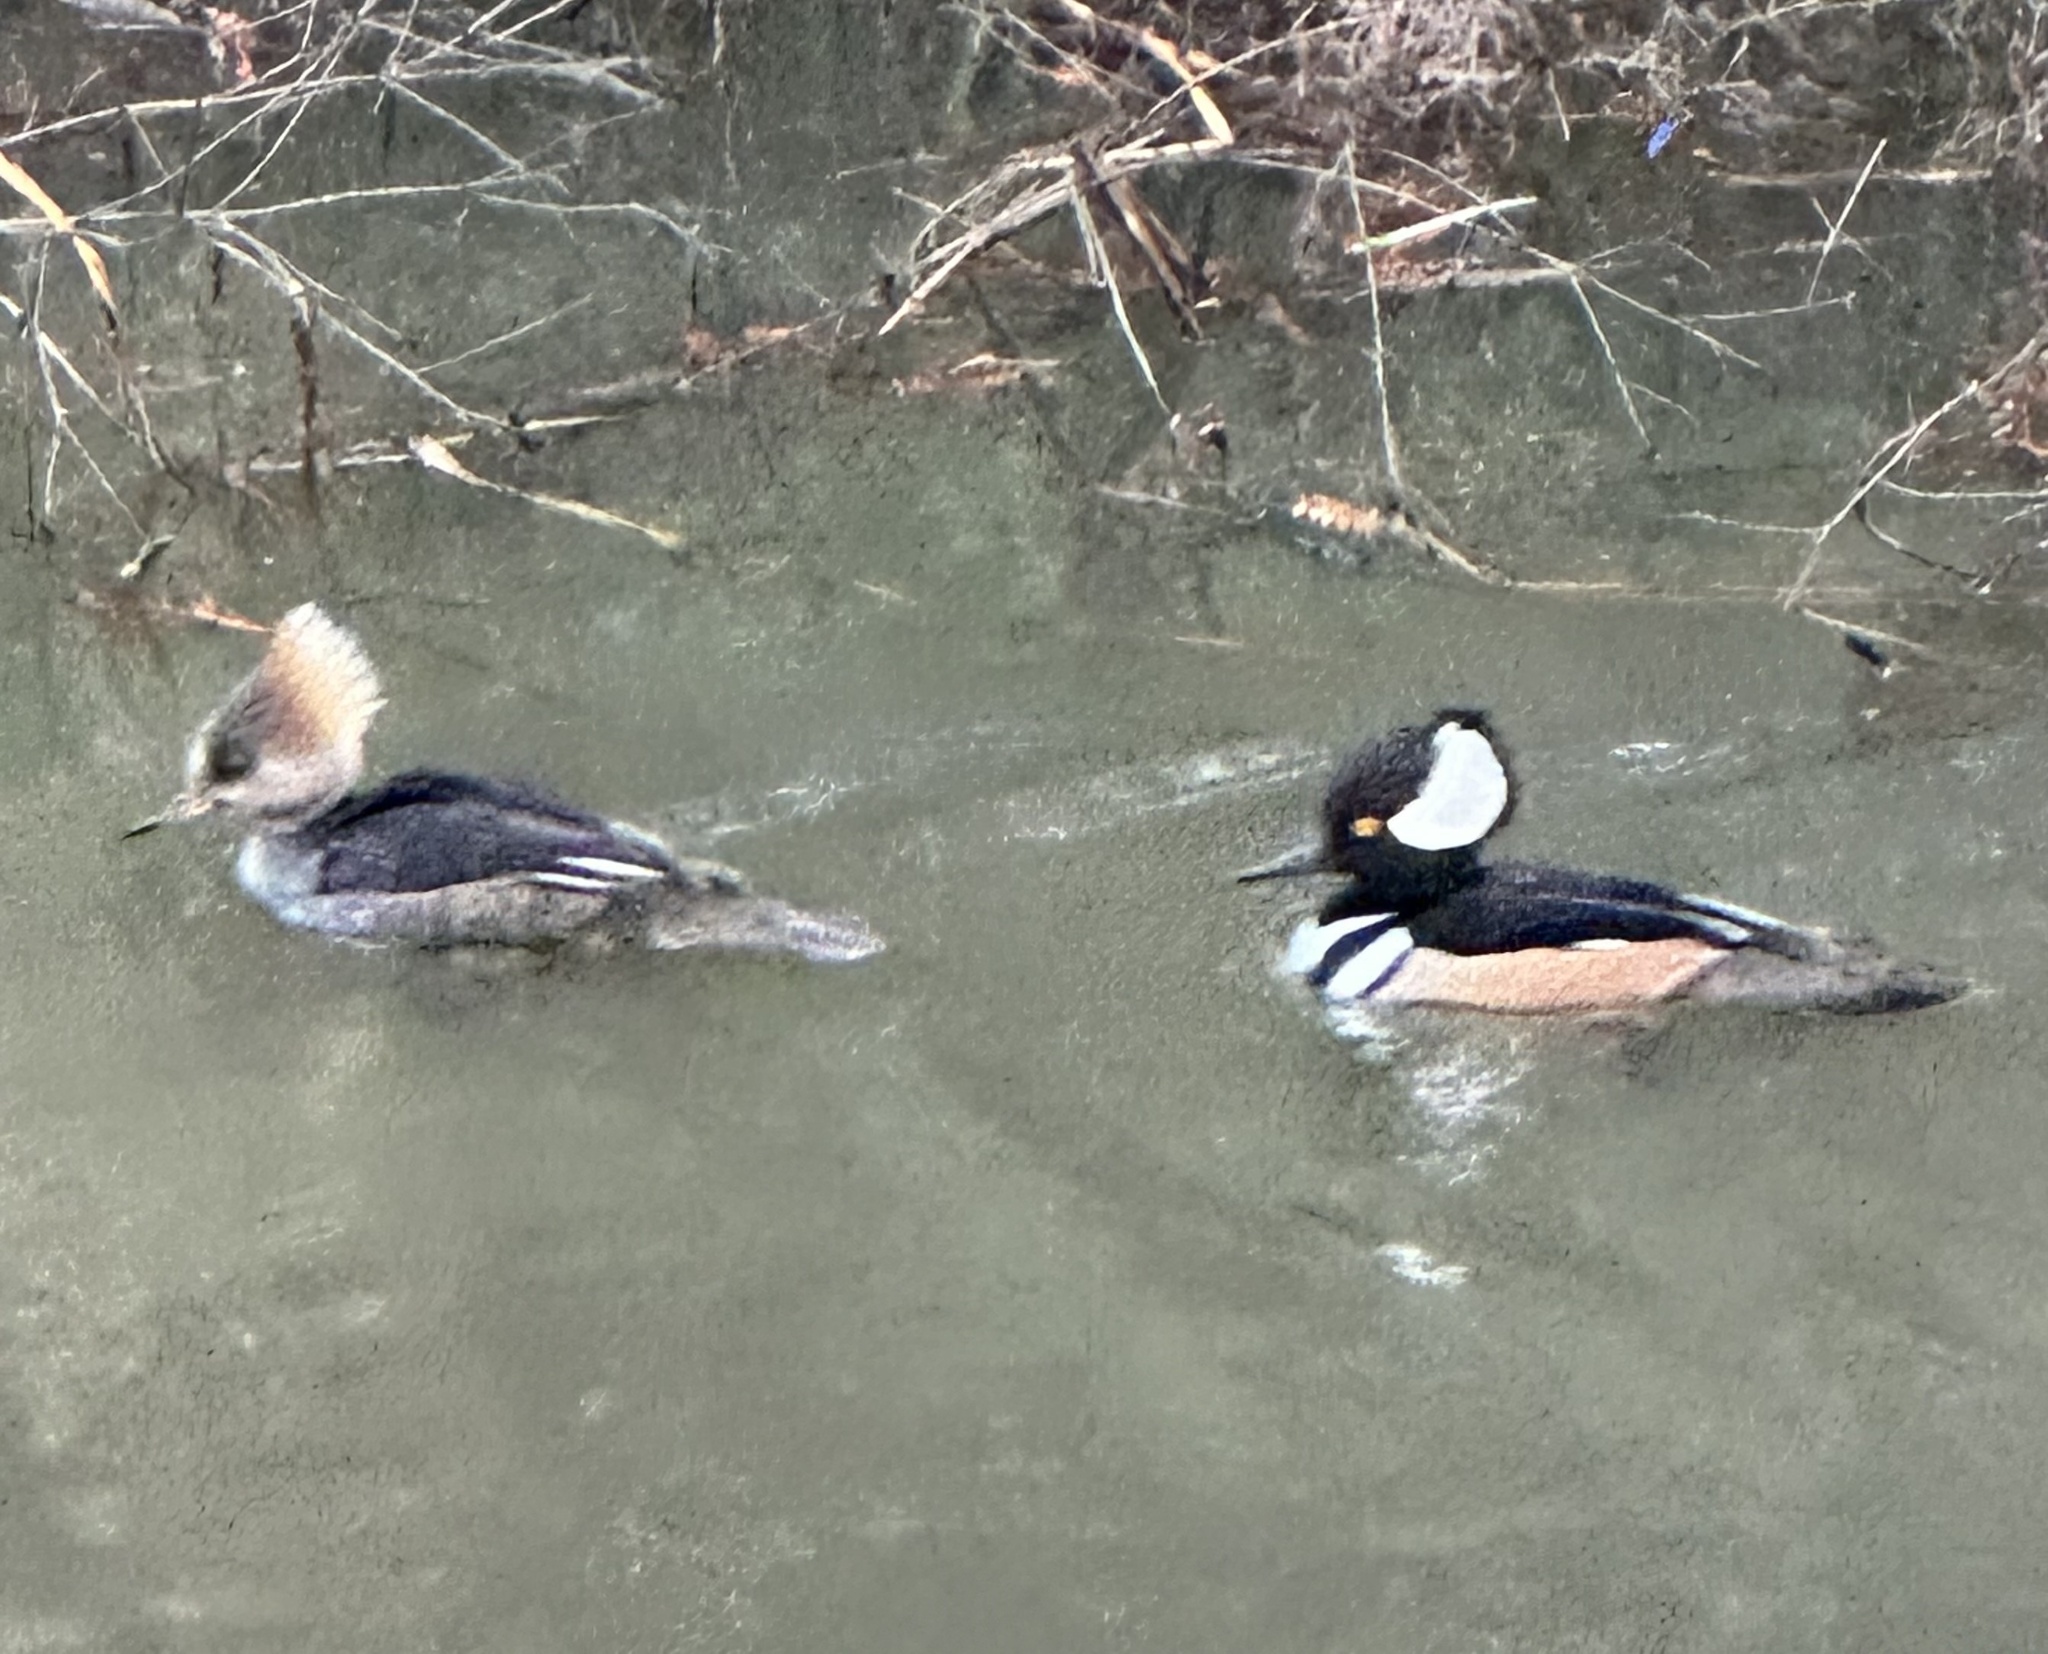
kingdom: Animalia
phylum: Chordata
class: Aves
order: Anseriformes
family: Anatidae
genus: Lophodytes
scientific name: Lophodytes cucullatus
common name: Hooded merganser
